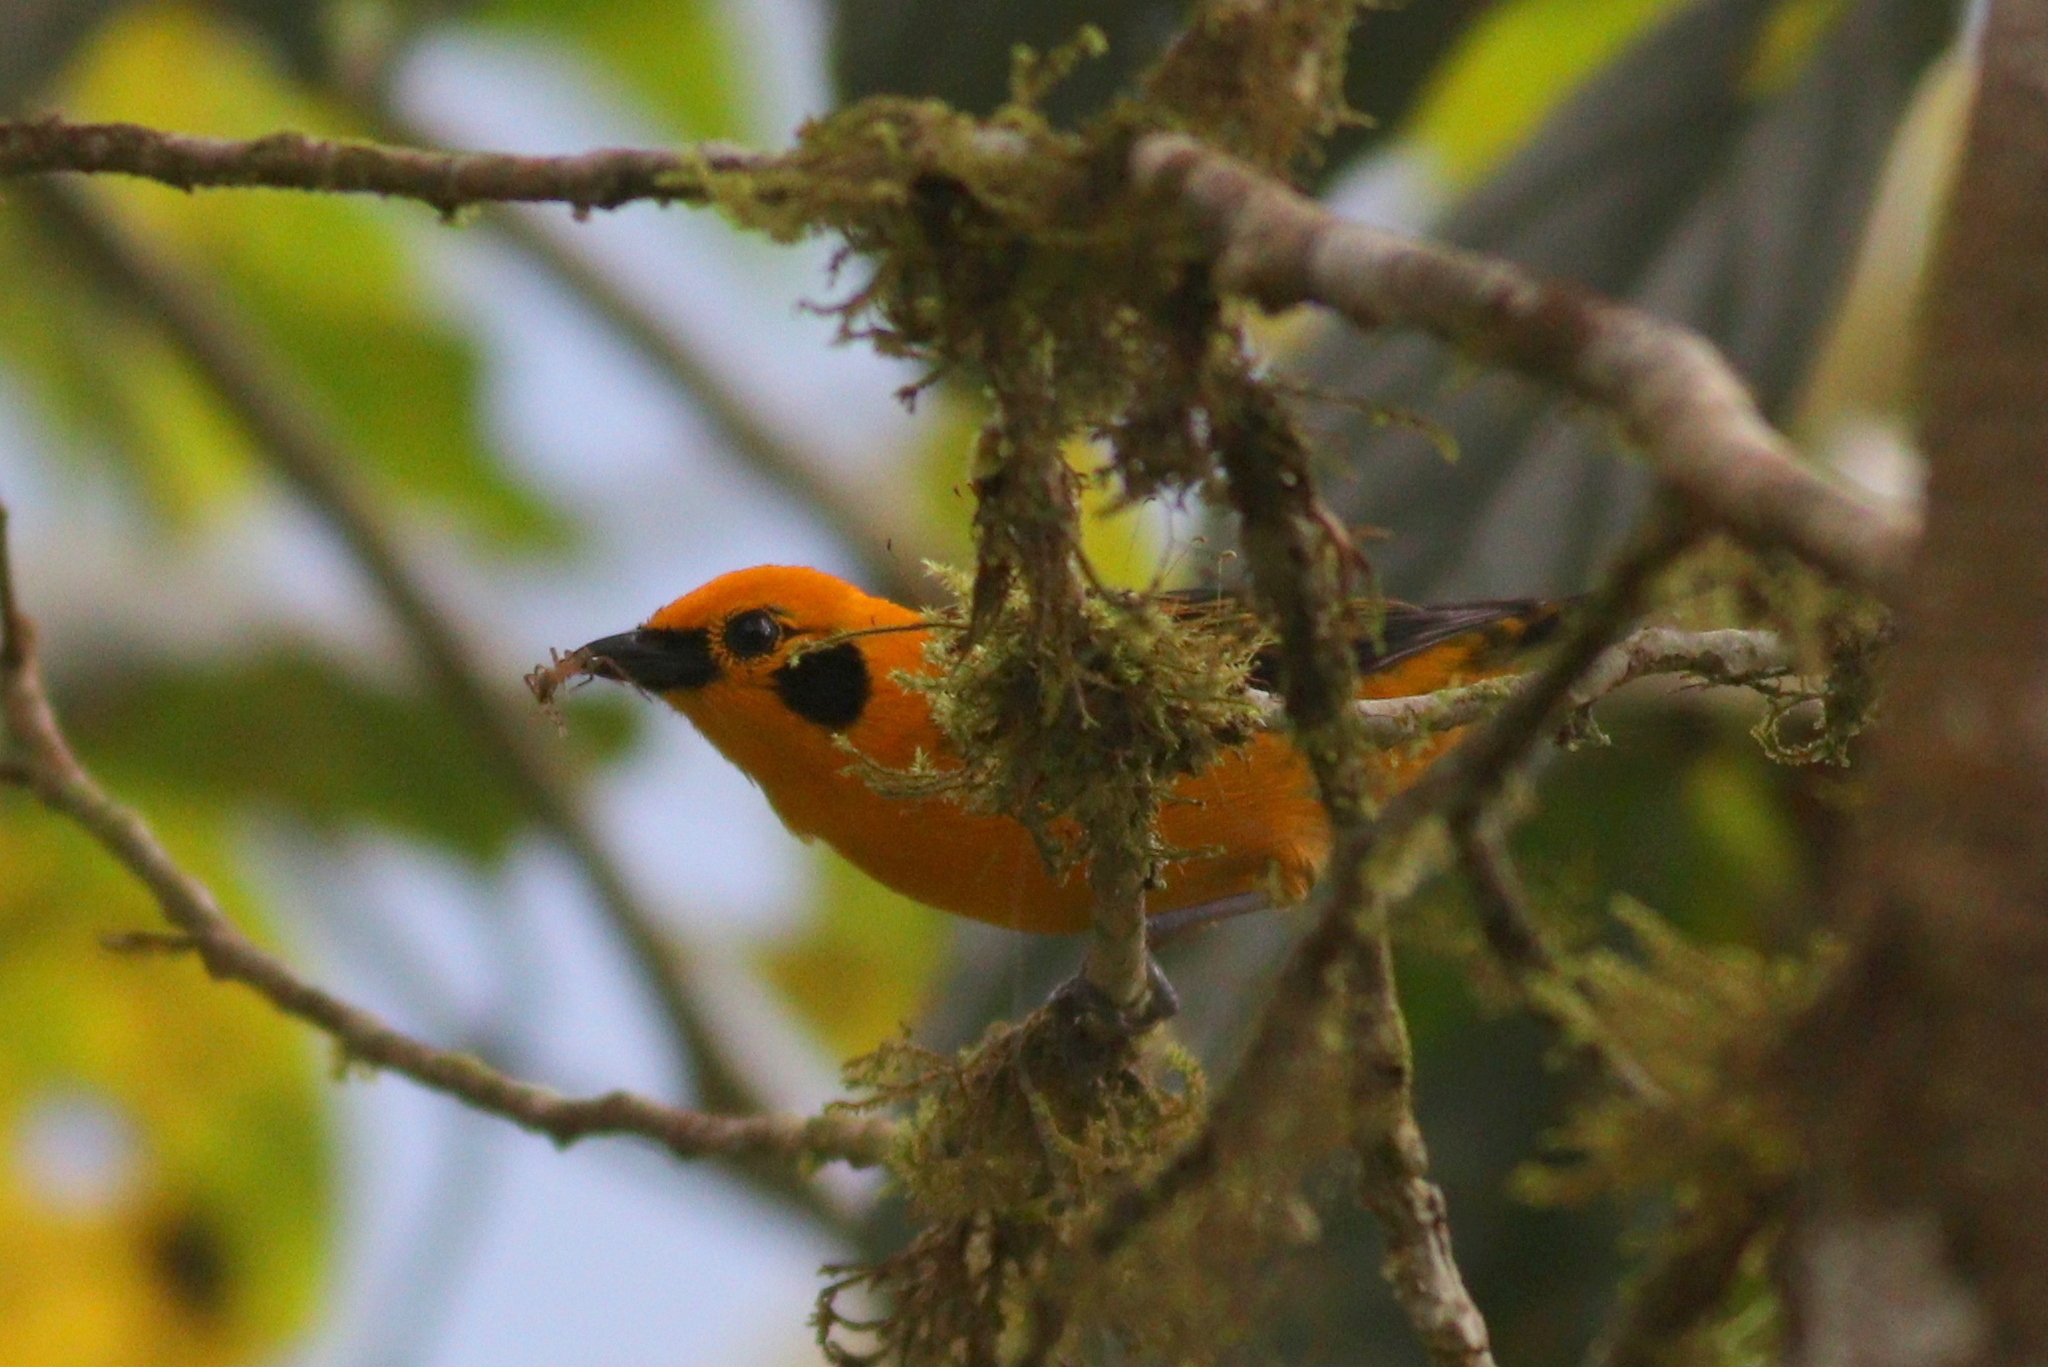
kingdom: Animalia
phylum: Chordata
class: Aves
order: Passeriformes
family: Thraupidae
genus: Tangara
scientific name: Tangara arthus
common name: Golden tanager
